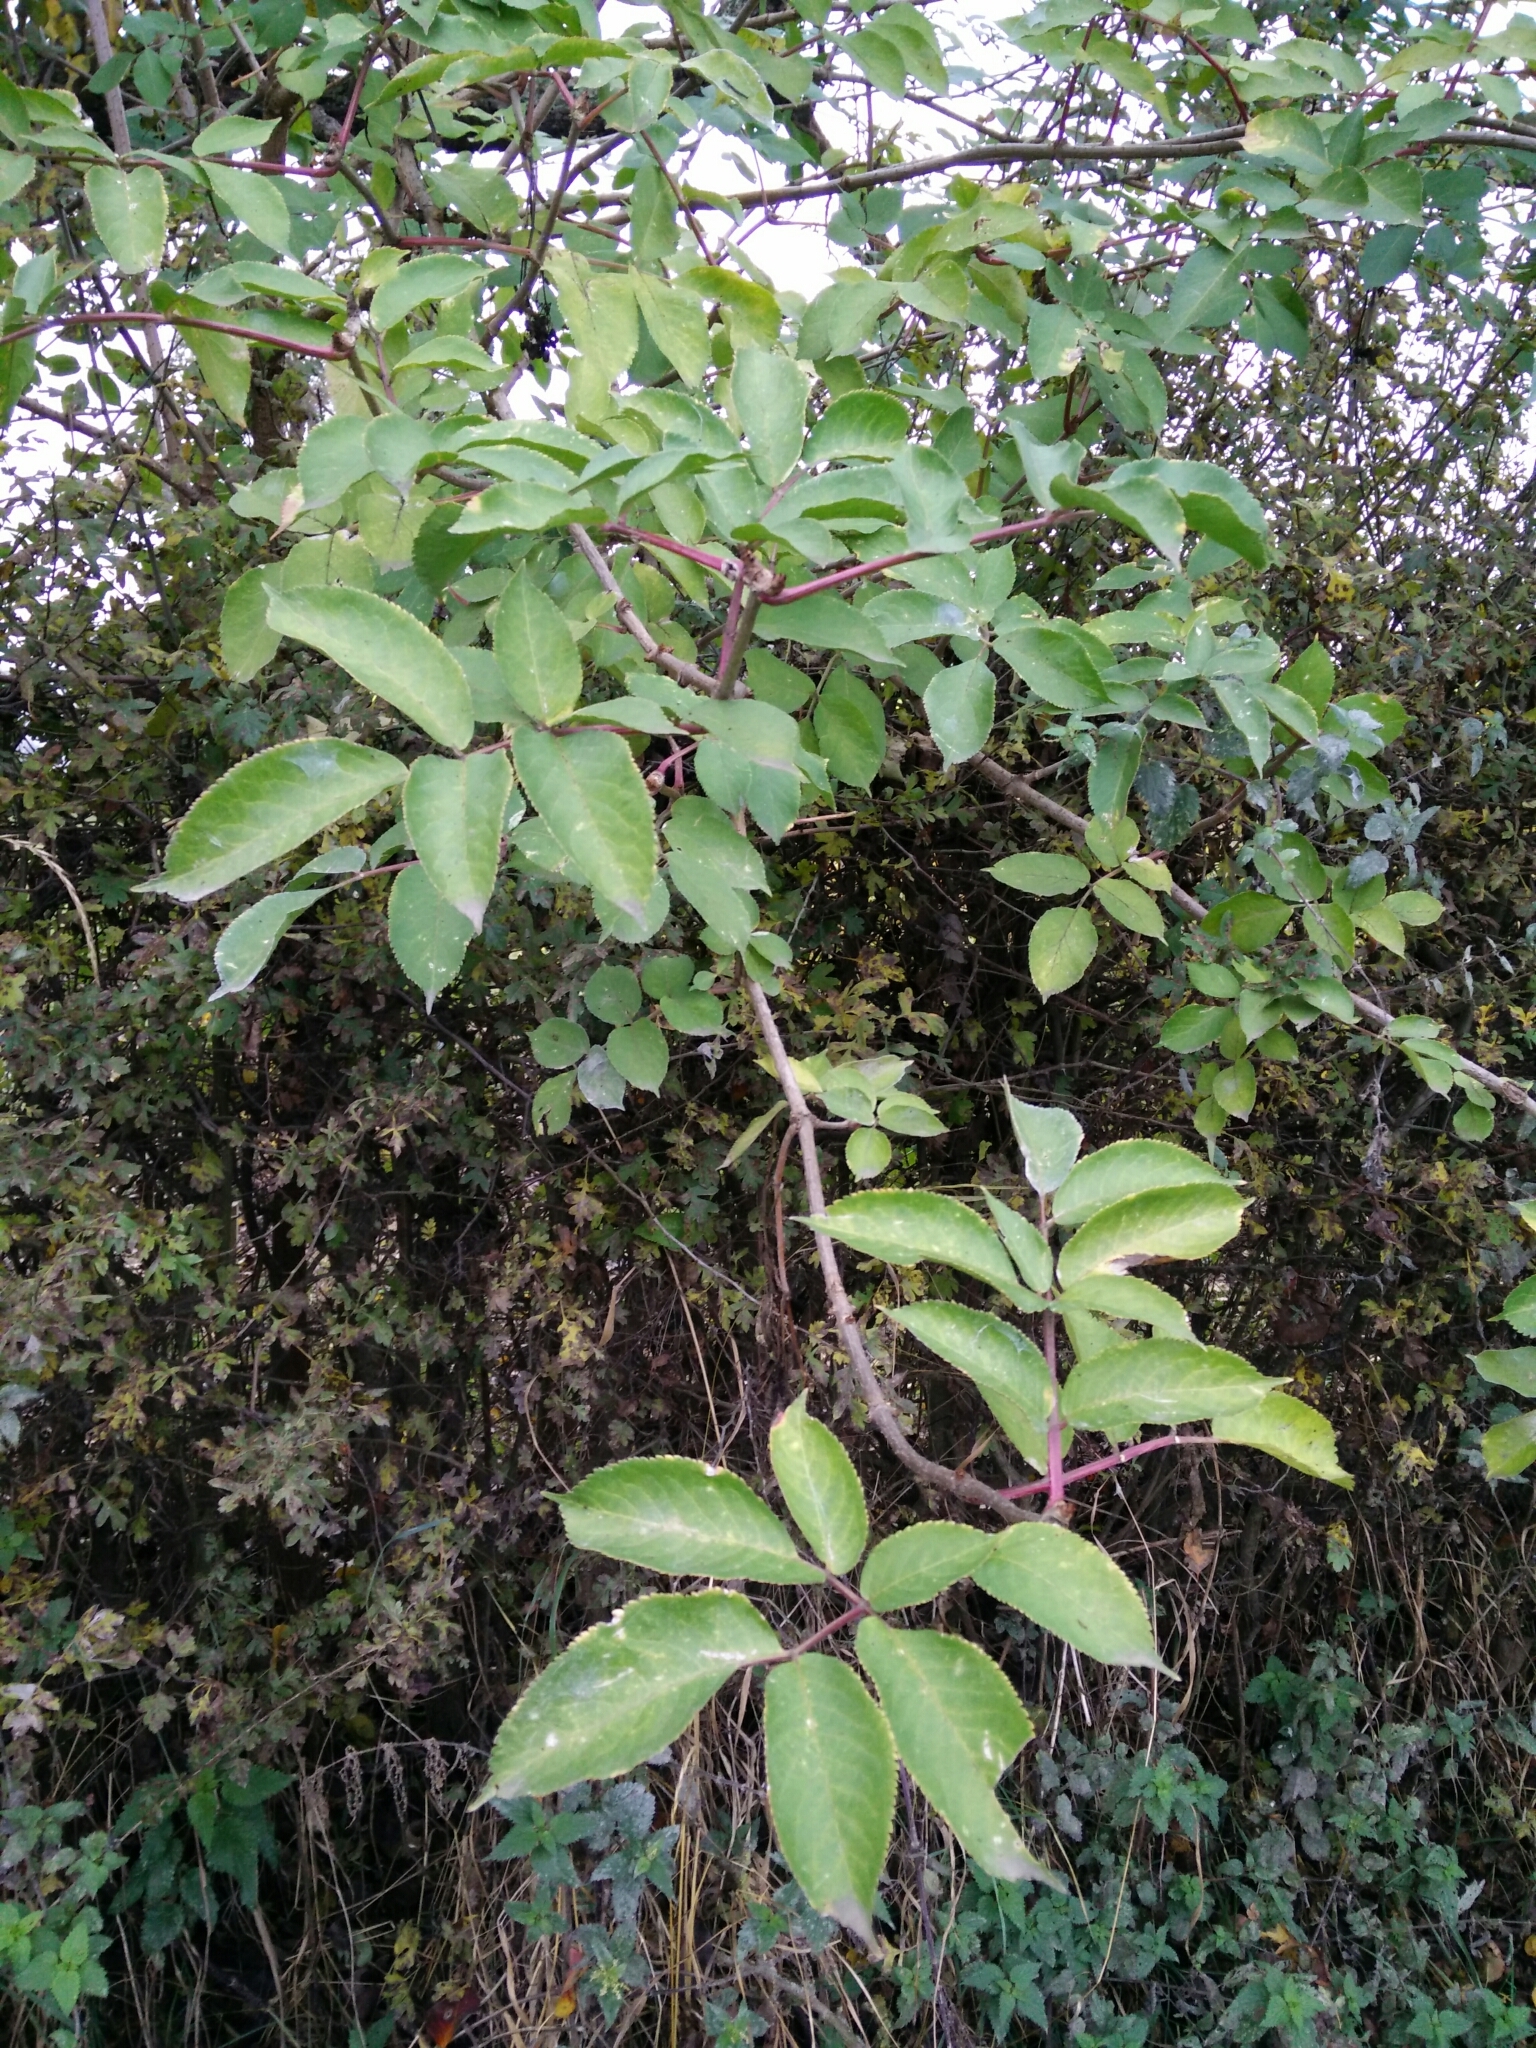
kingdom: Plantae
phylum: Tracheophyta
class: Magnoliopsida
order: Dipsacales
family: Viburnaceae
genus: Sambucus
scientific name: Sambucus nigra
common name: Elder
